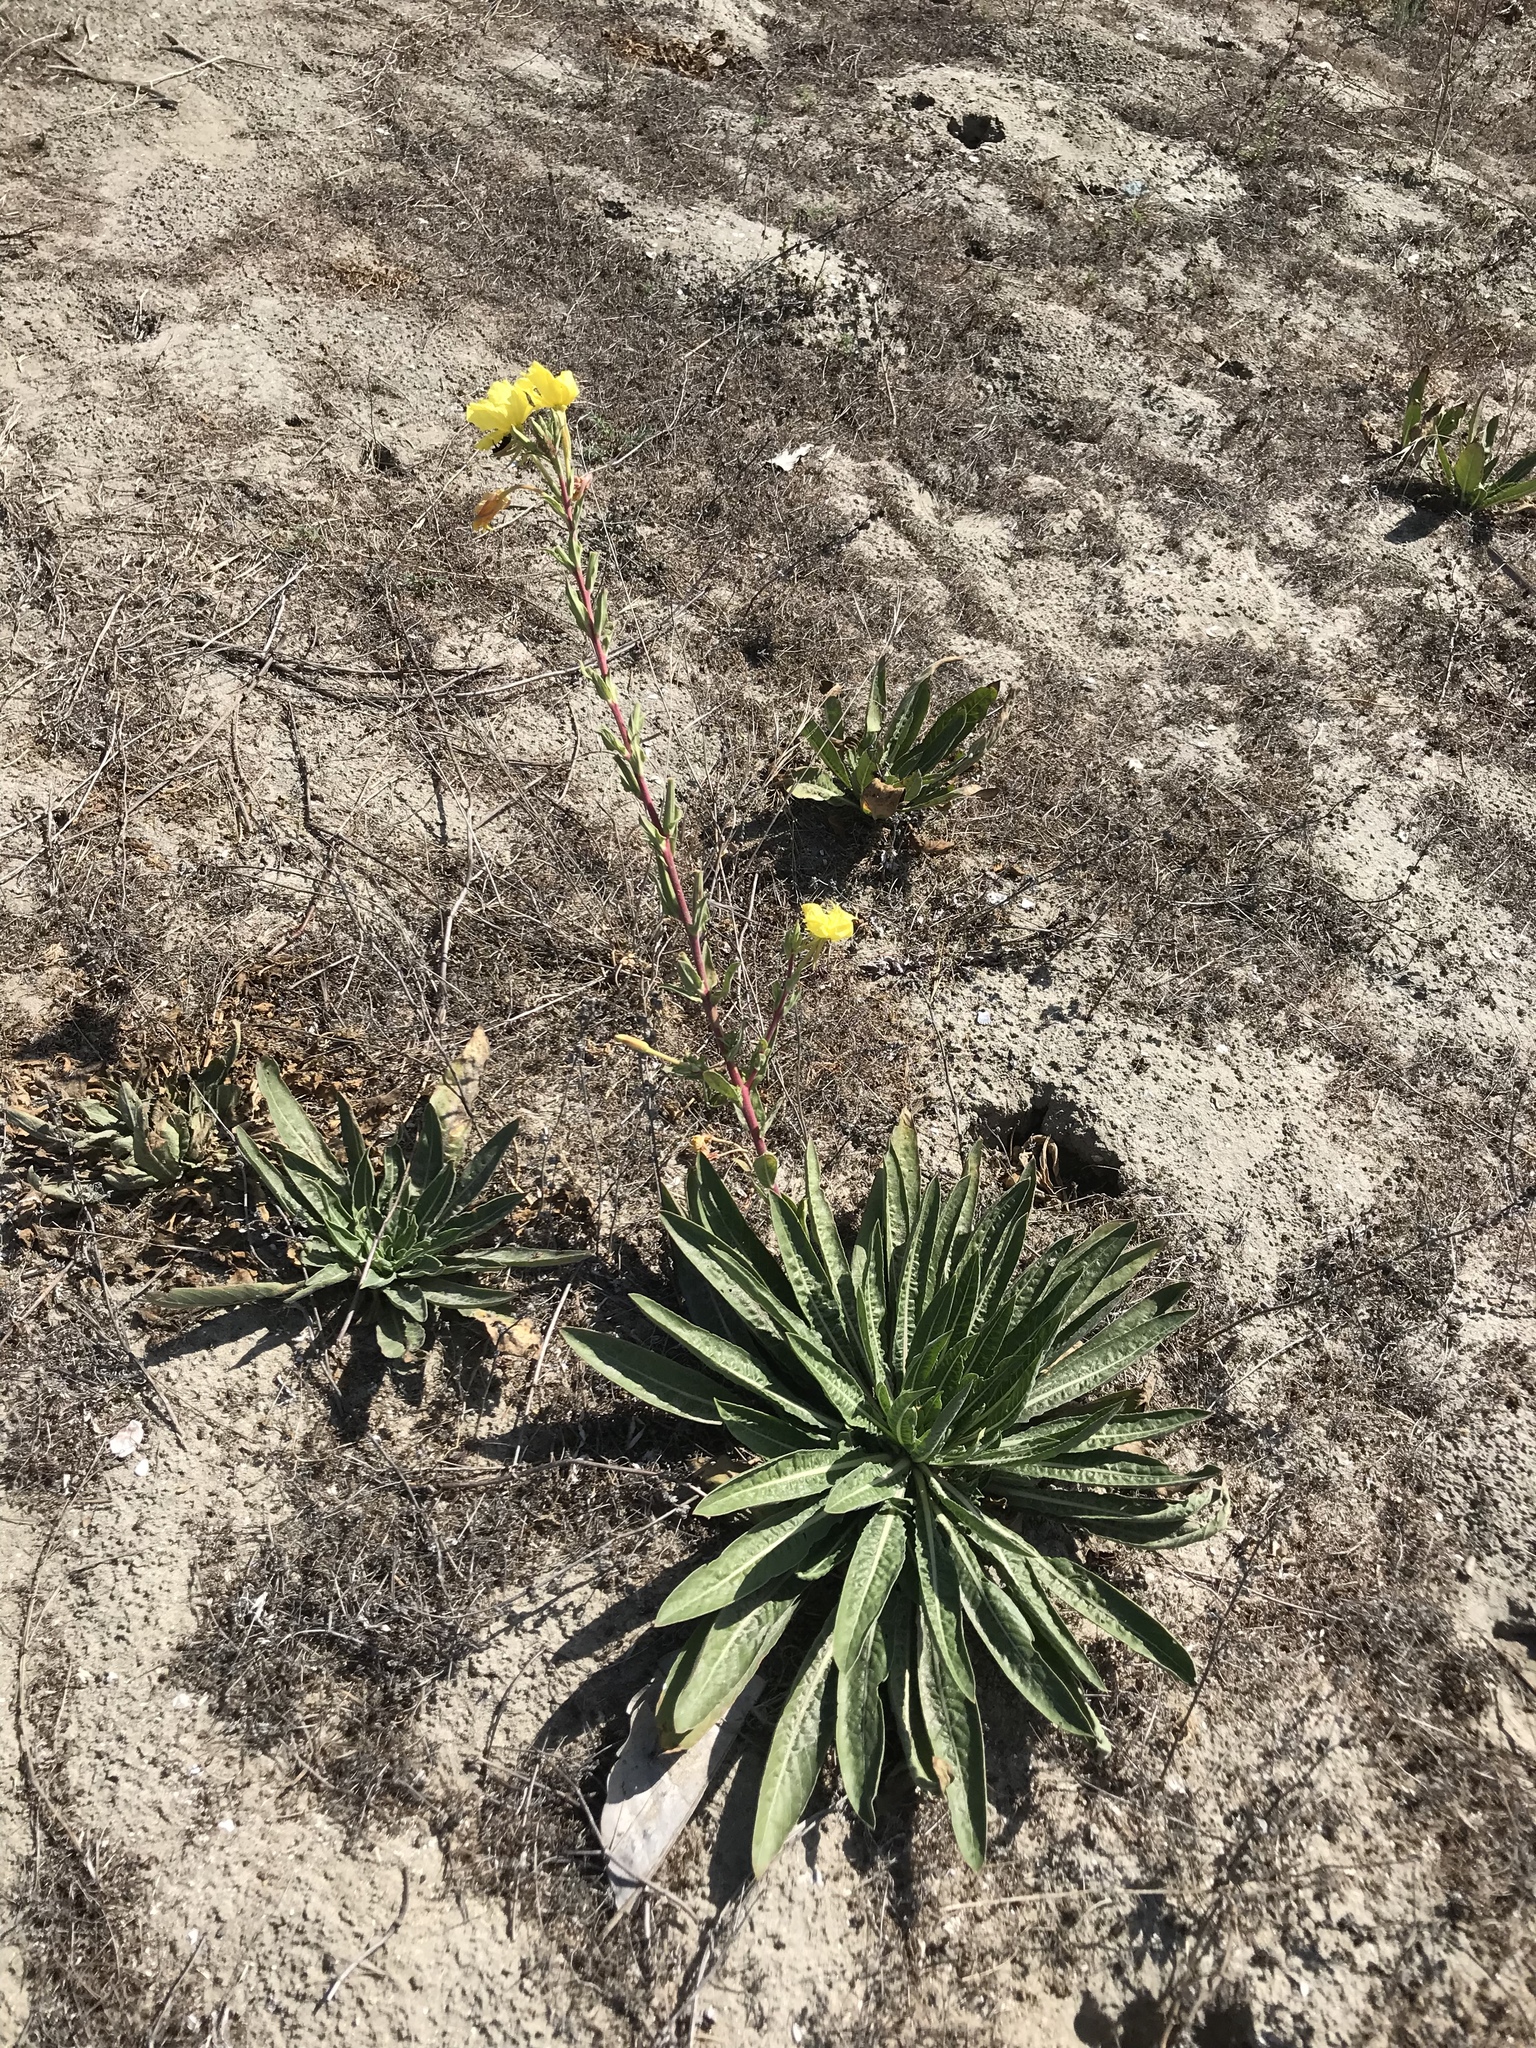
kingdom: Plantae
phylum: Tracheophyta
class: Magnoliopsida
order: Myrtales
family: Onagraceae
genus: Oenothera
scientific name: Oenothera elata
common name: Hooker's evening-primrose
